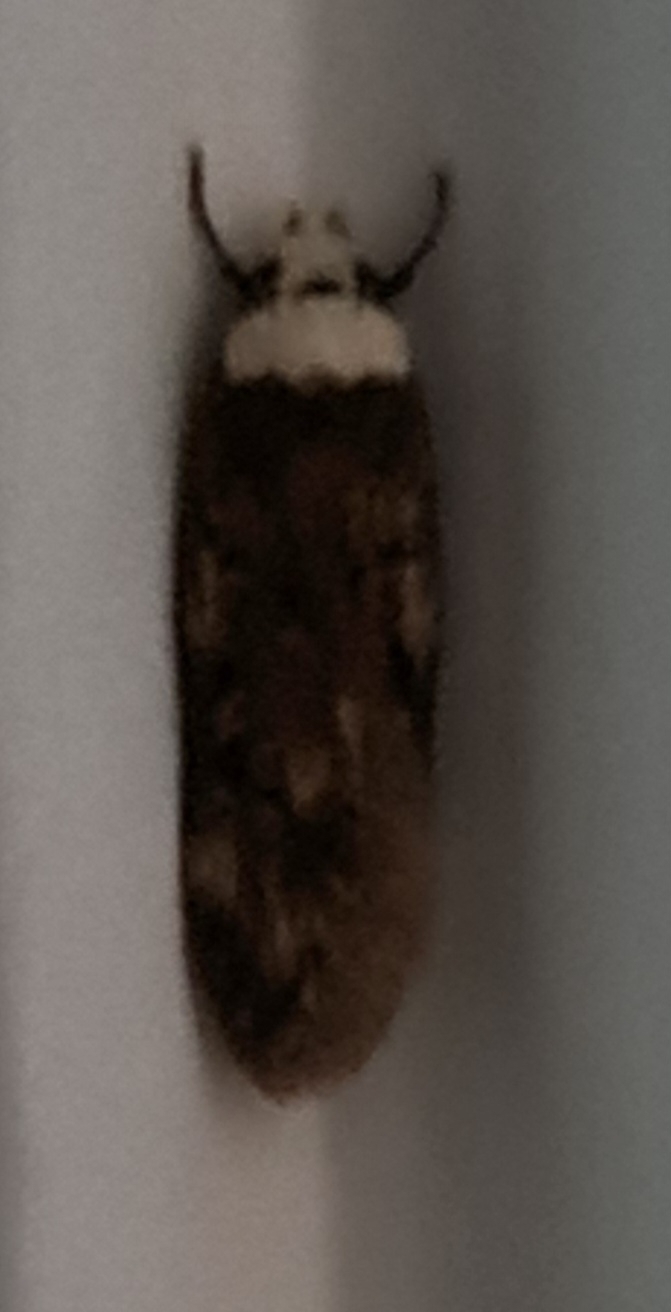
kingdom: Animalia
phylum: Arthropoda
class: Insecta
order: Lepidoptera
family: Oecophoridae
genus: Endrosis
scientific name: Endrosis sarcitrella
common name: White-shouldered house moth
